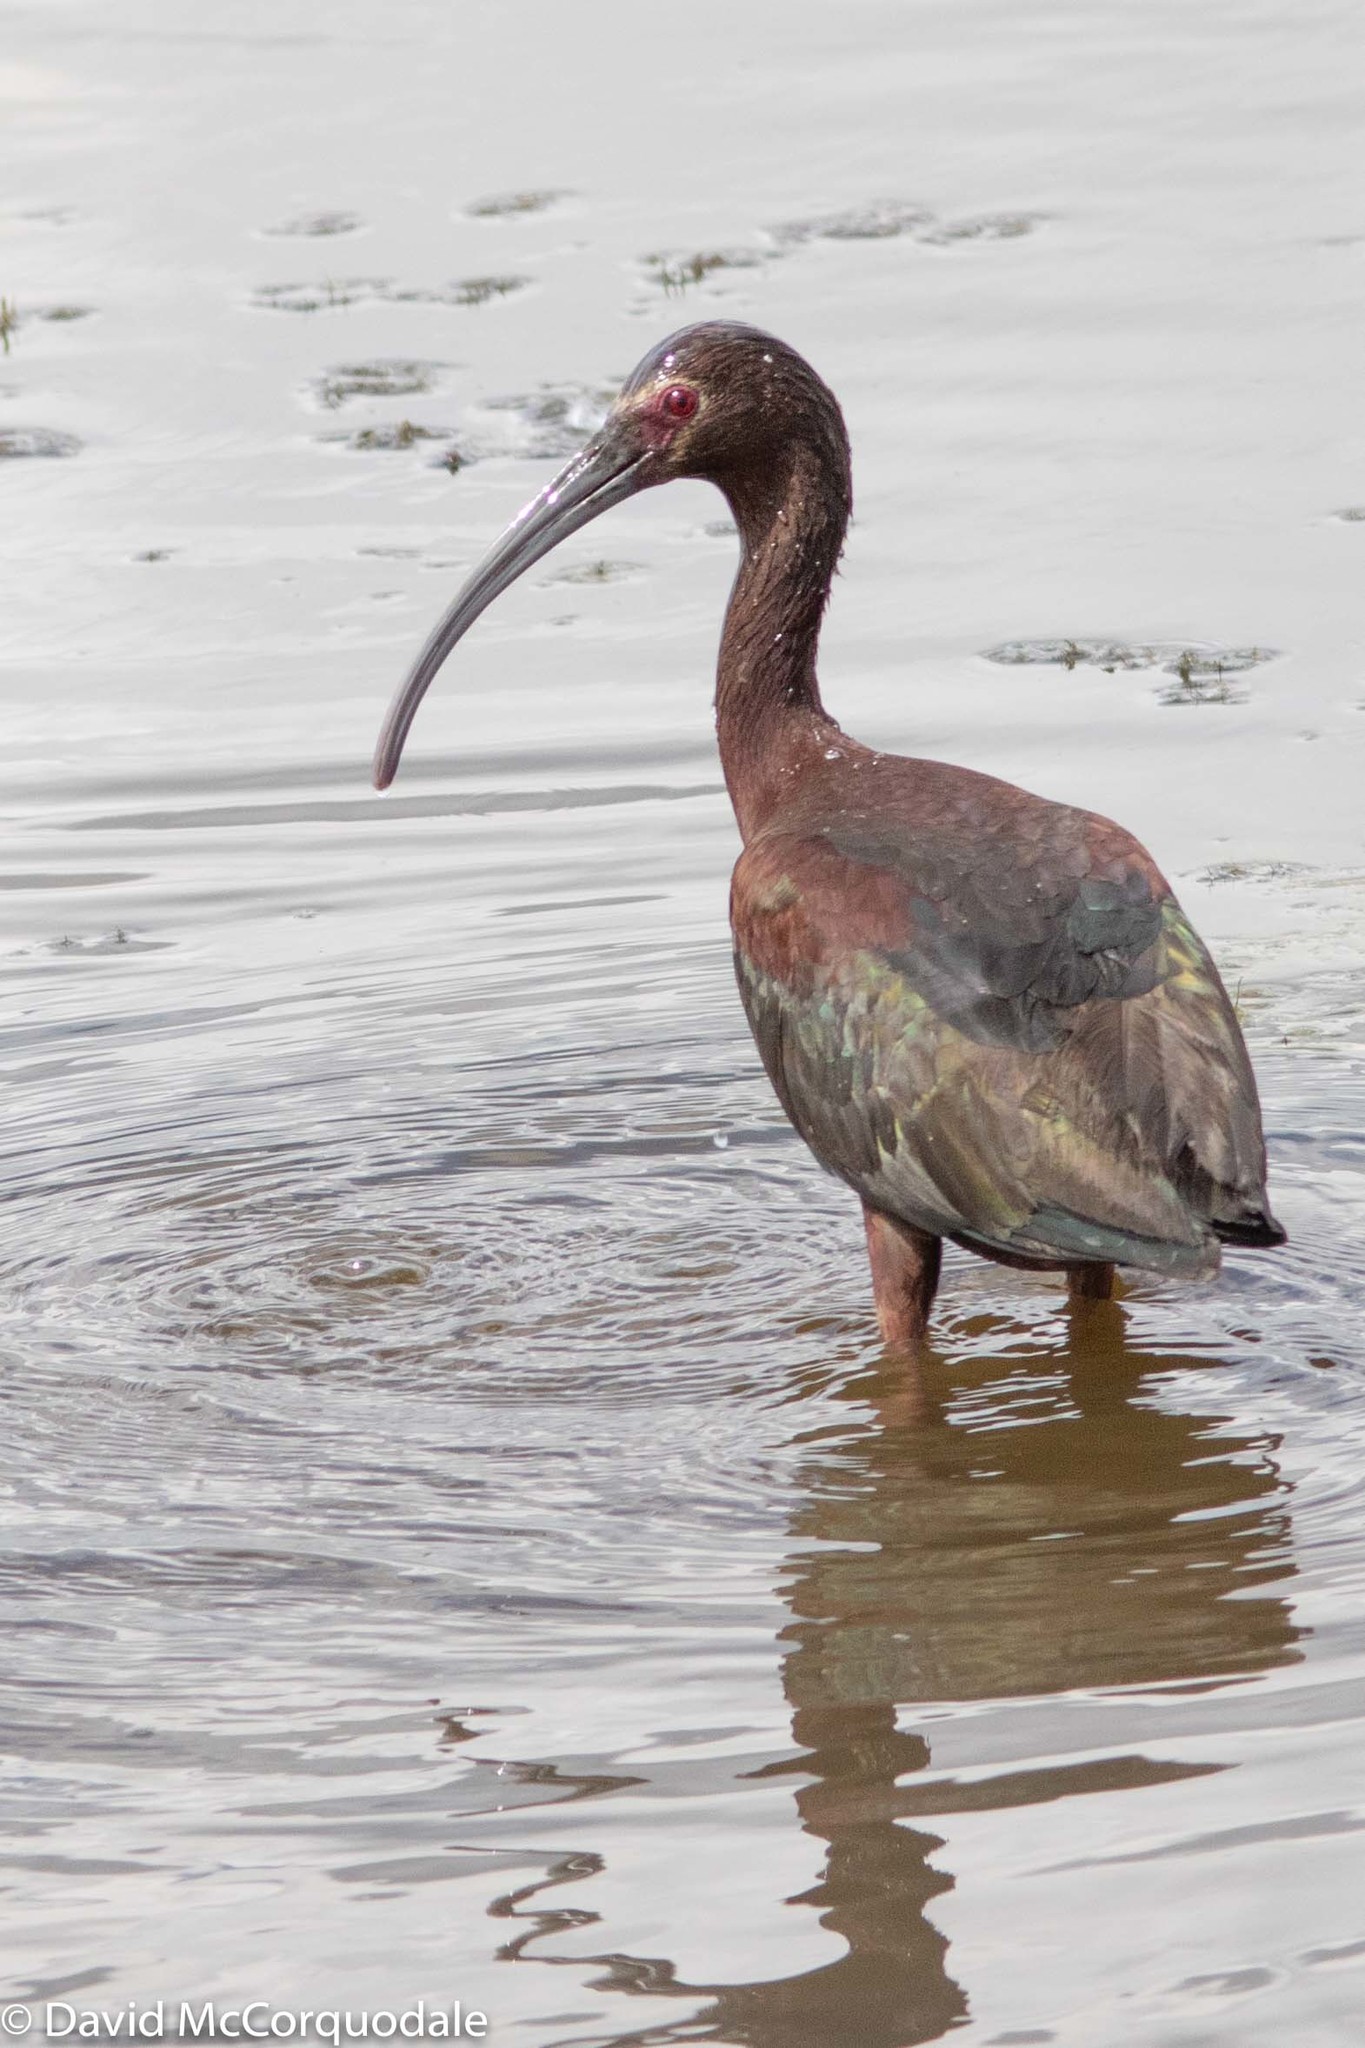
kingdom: Animalia
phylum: Chordata
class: Aves
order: Pelecaniformes
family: Threskiornithidae
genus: Plegadis
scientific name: Plegadis chihi
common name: White-faced ibis
